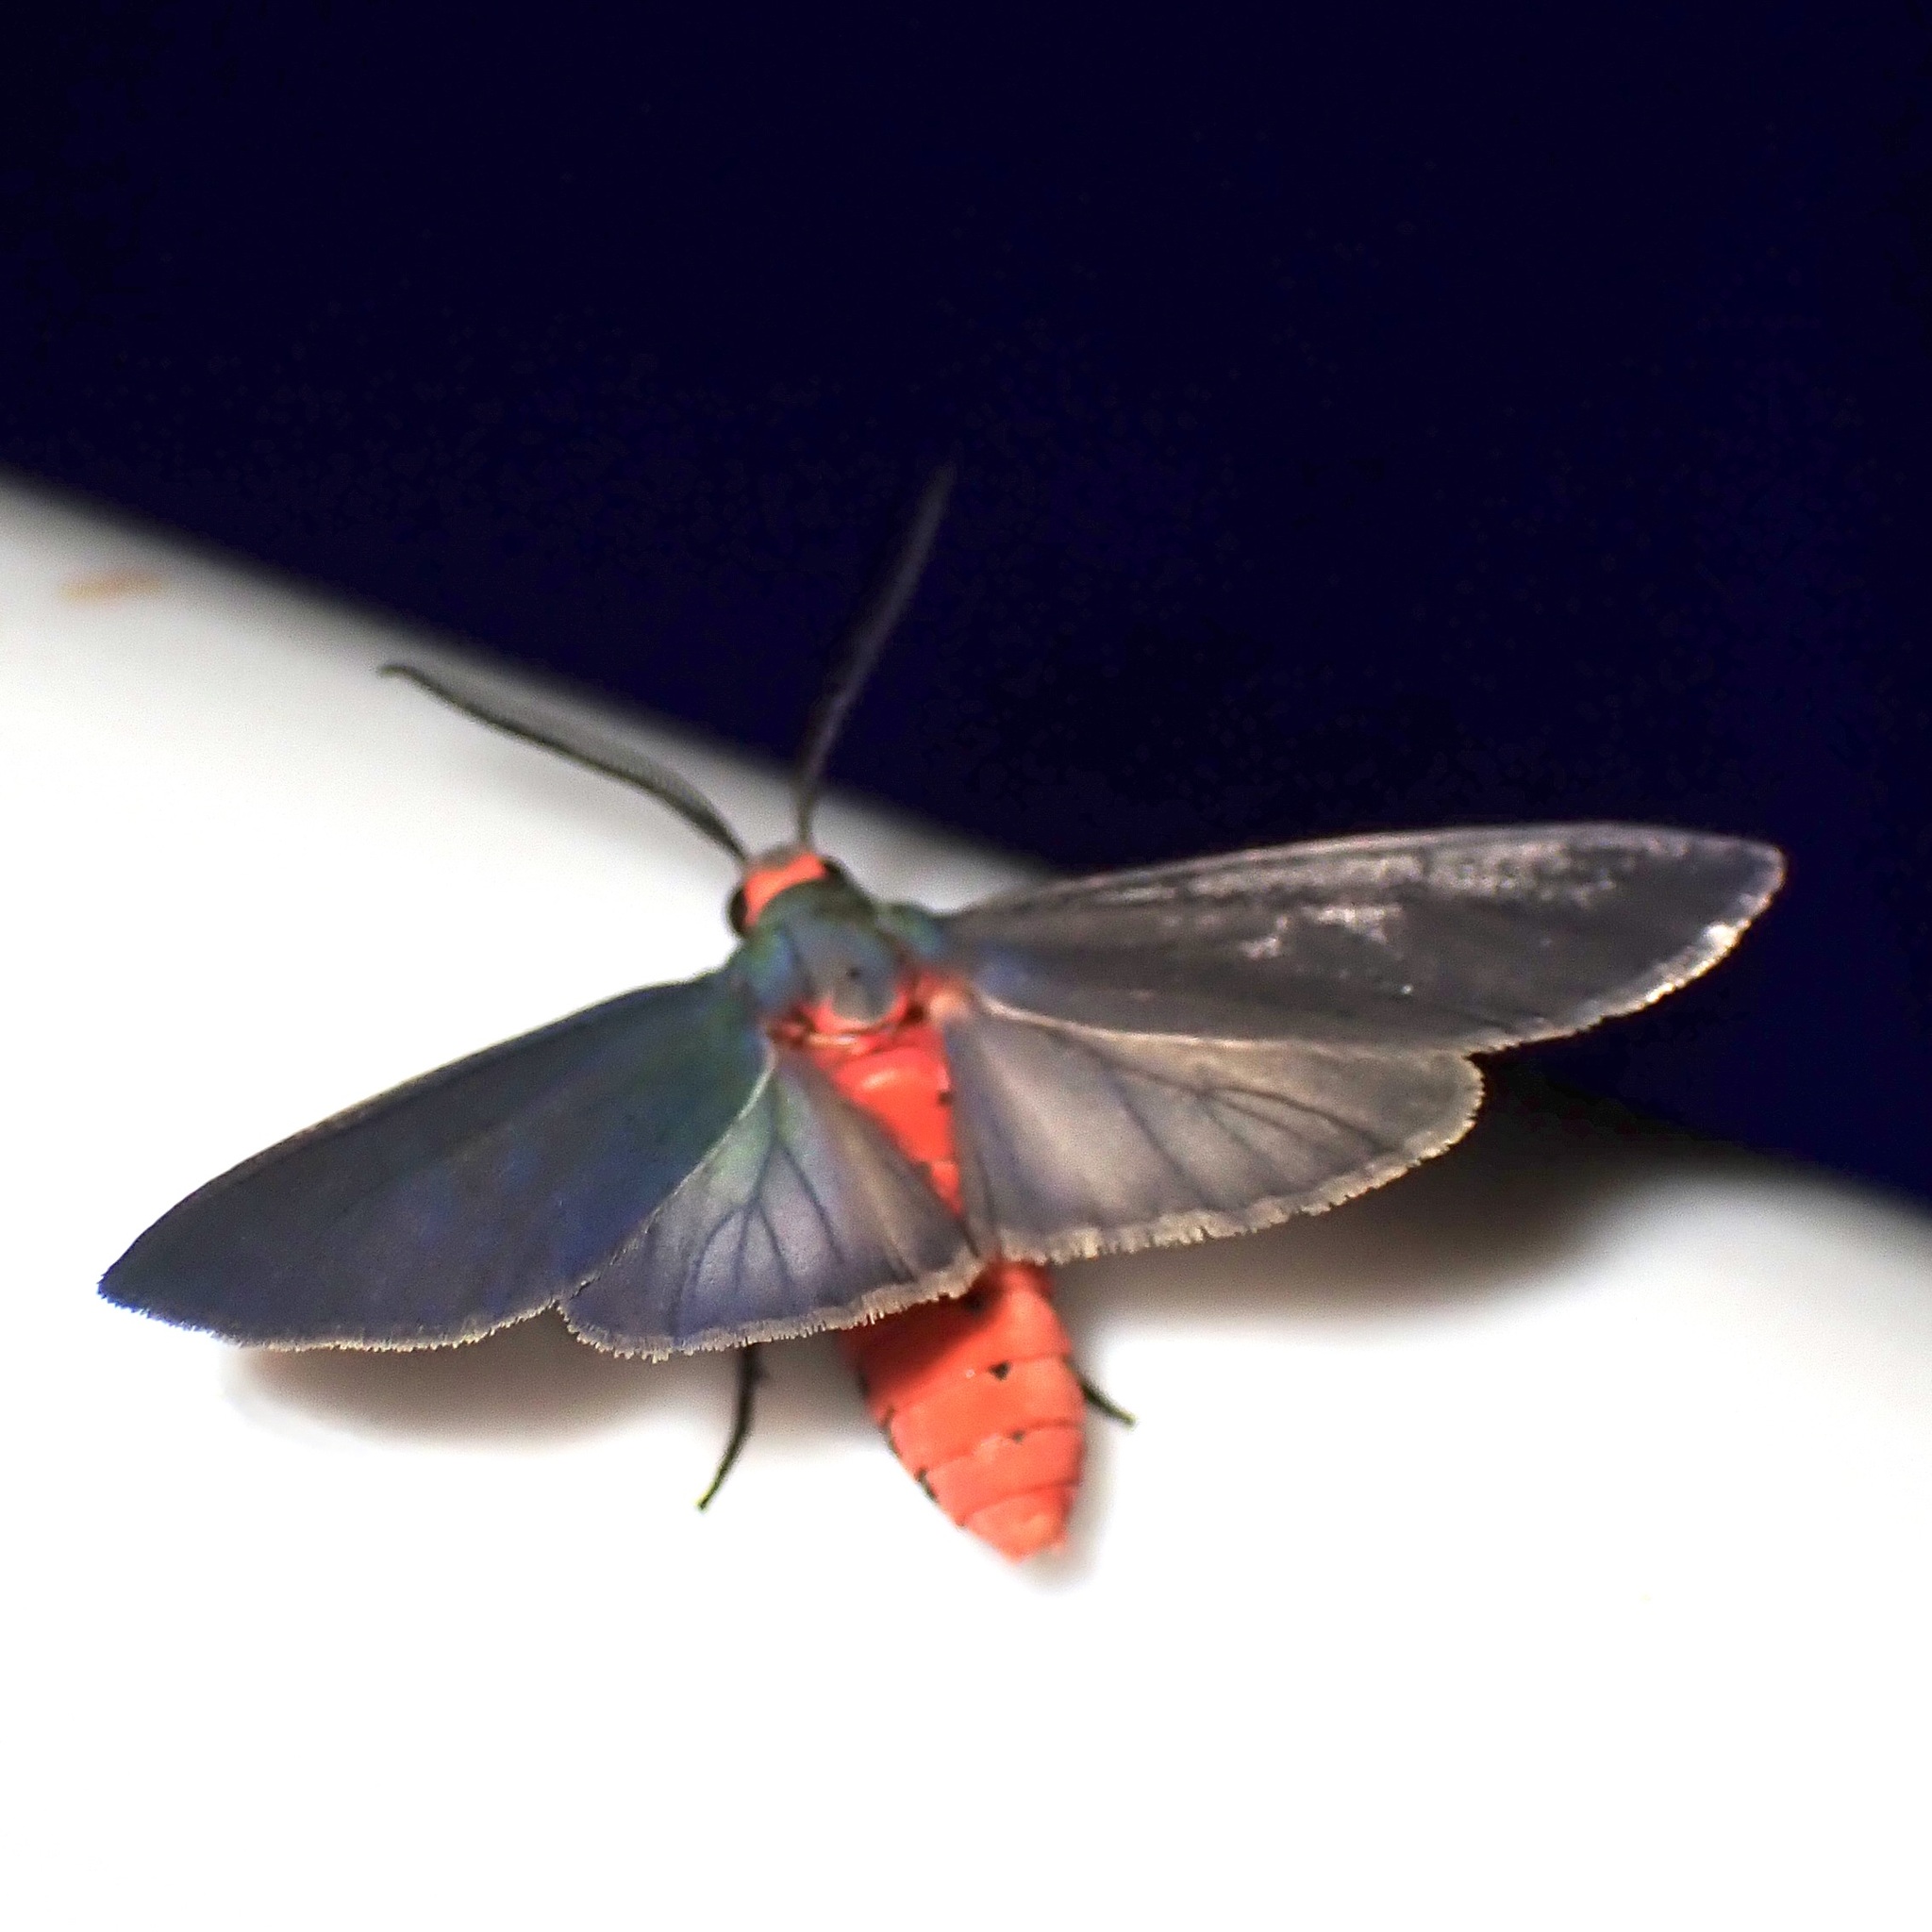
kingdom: Animalia
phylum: Arthropoda
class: Insecta
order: Lepidoptera
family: Erebidae
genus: Pygarctia
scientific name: Pygarctia murina
